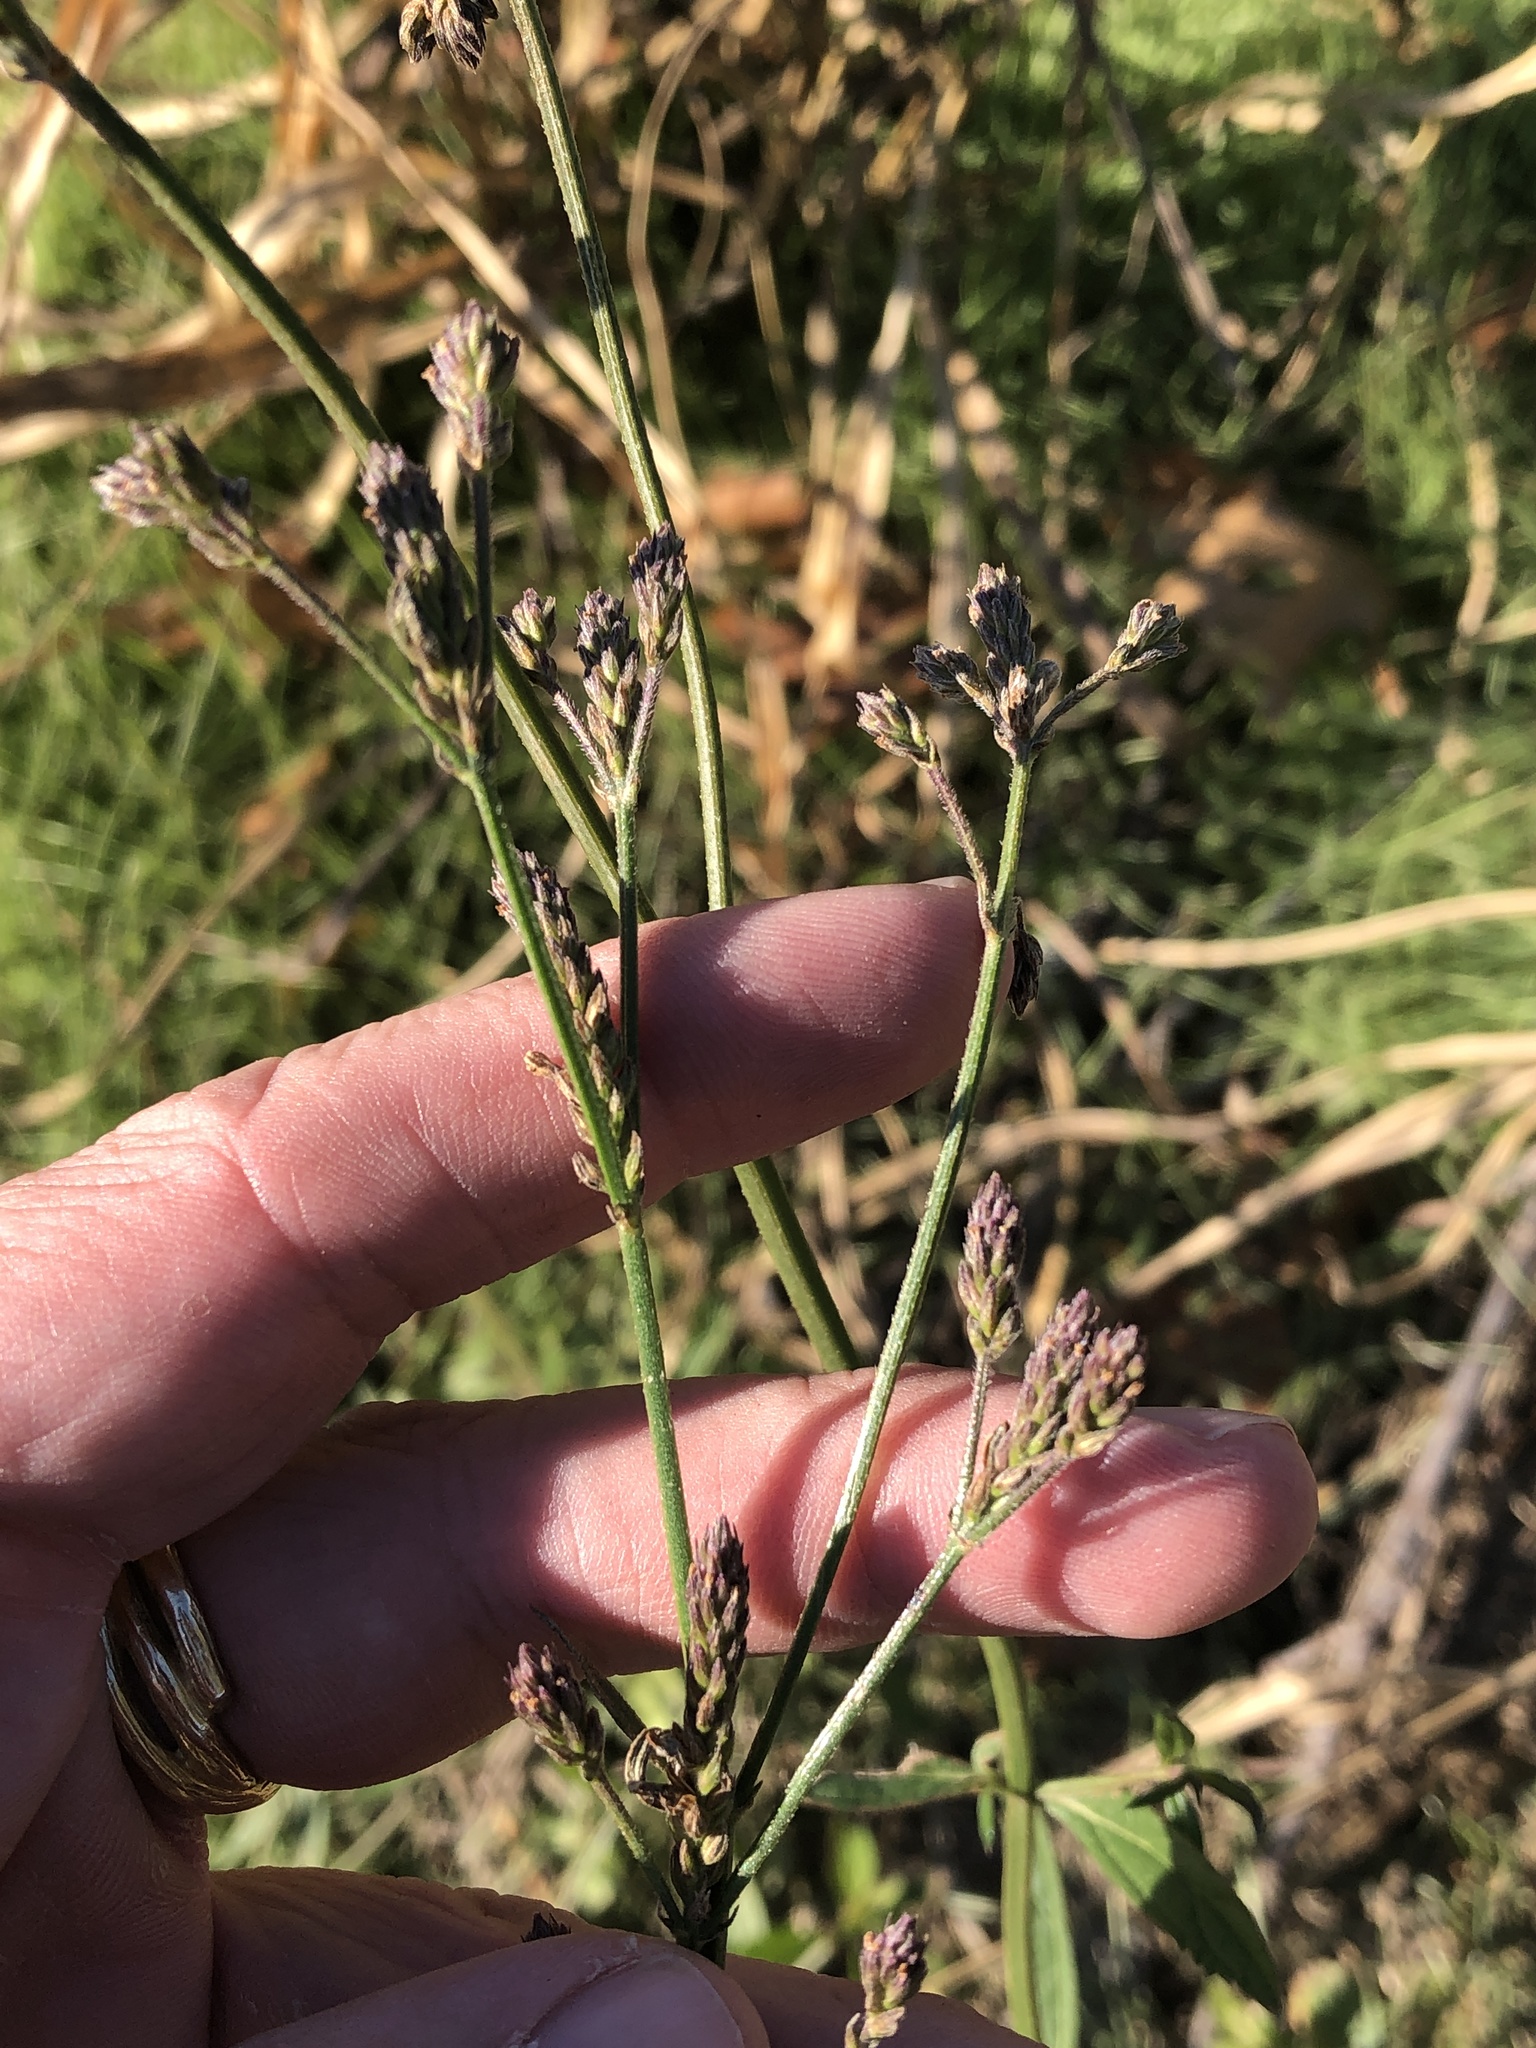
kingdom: Plantae
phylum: Tracheophyta
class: Magnoliopsida
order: Lamiales
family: Verbenaceae
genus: Verbena
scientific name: Verbena brasiliensis
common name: Brazilian vervain
